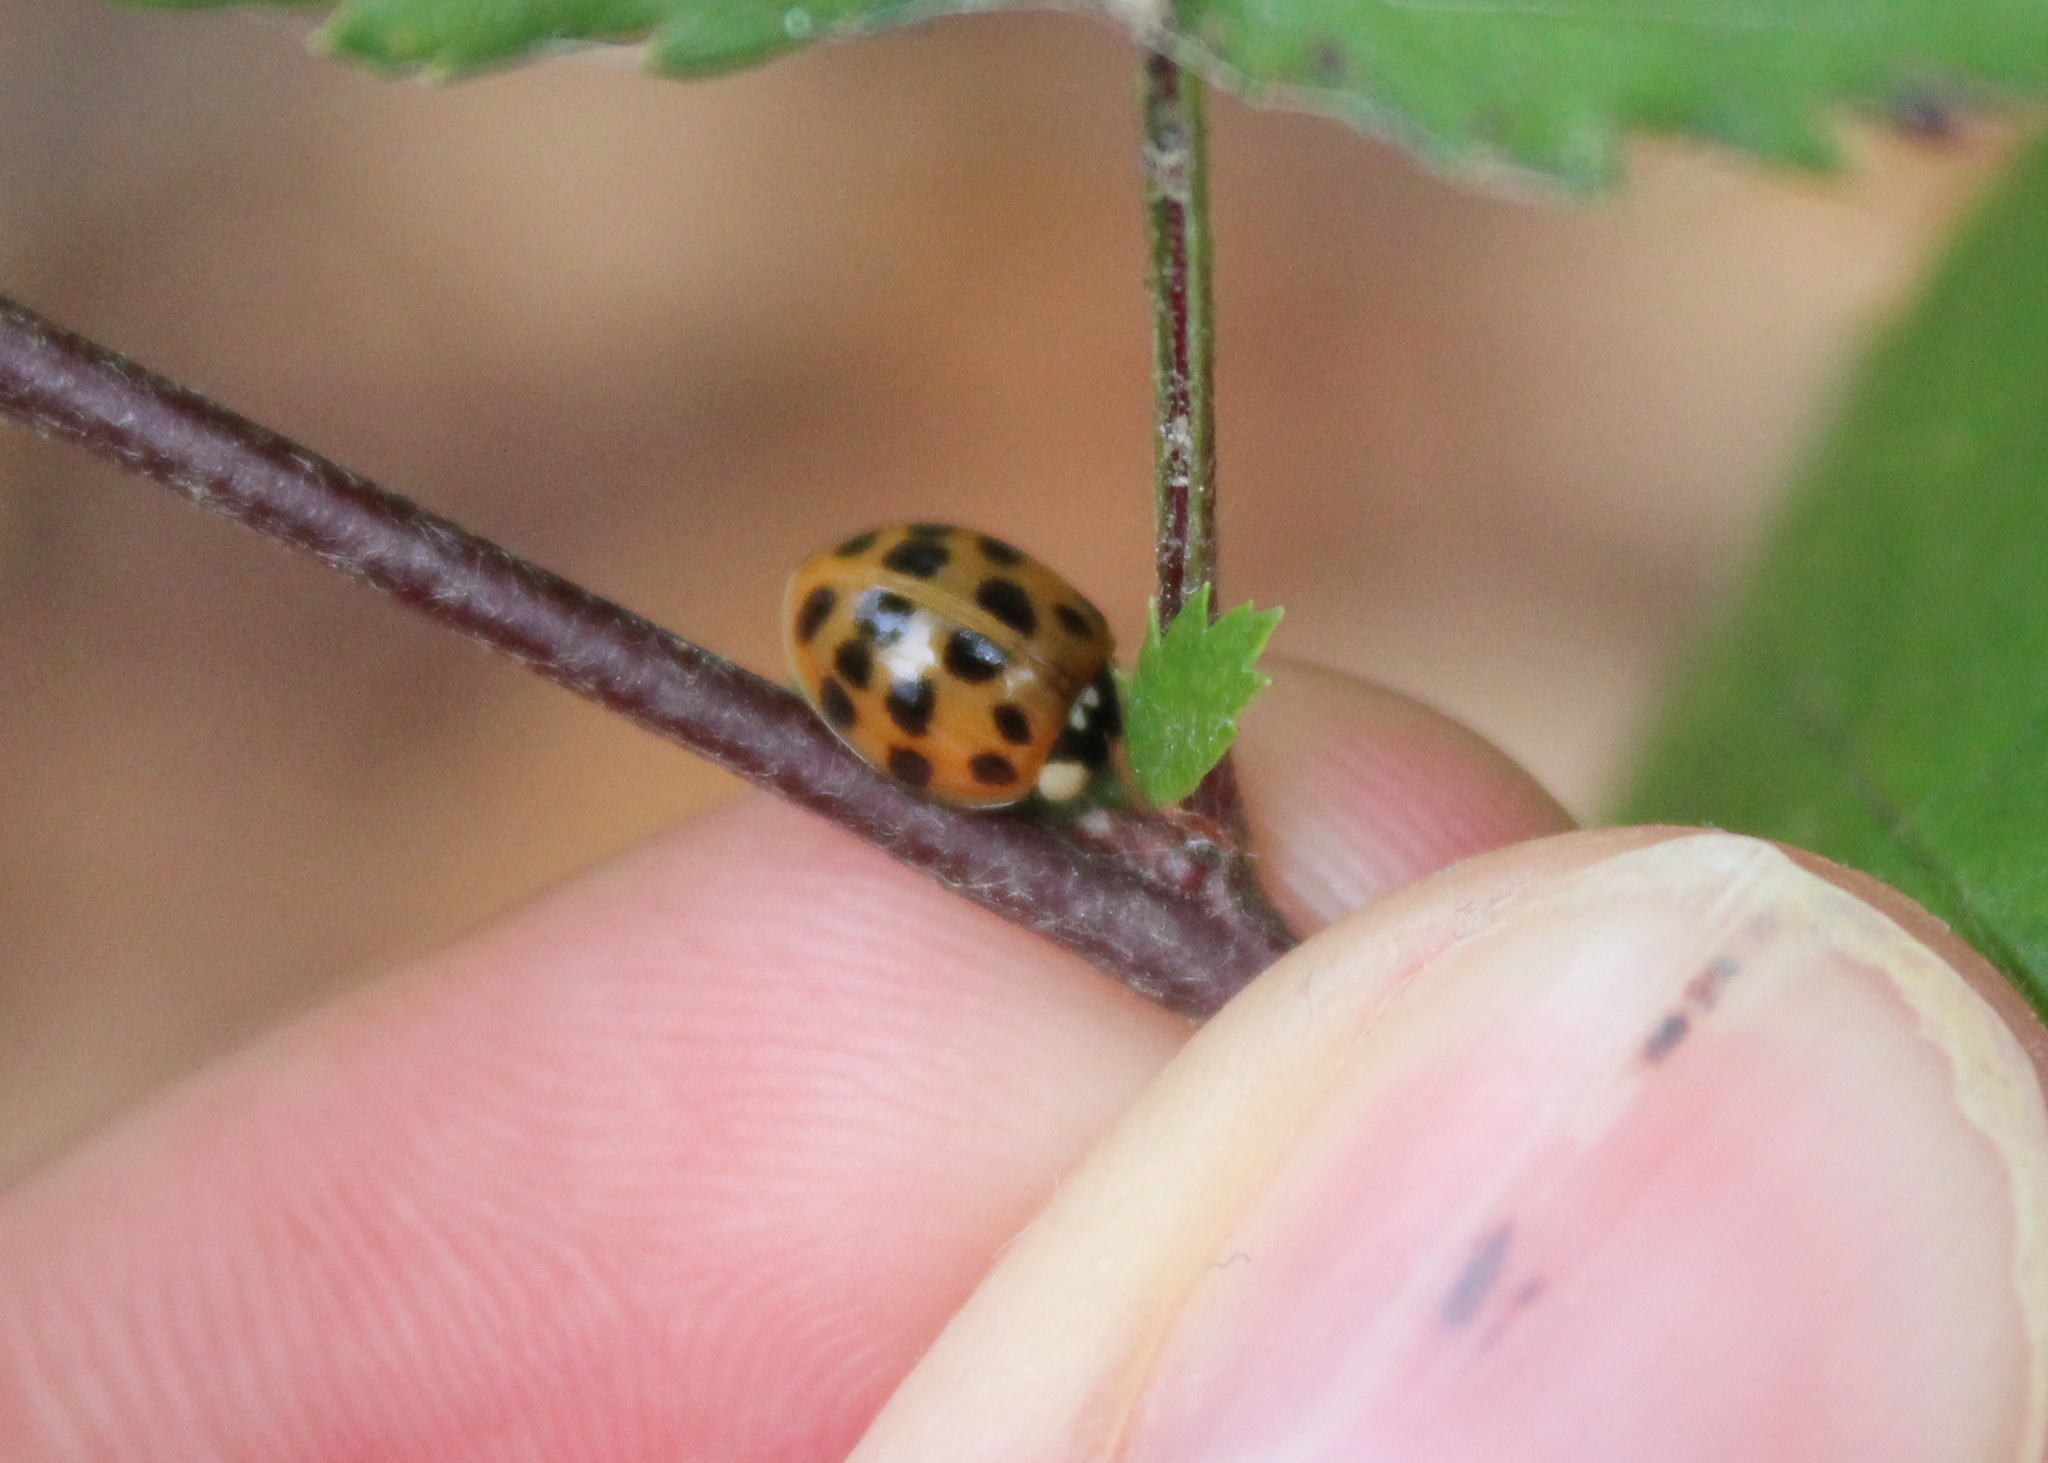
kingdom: Animalia
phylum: Arthropoda
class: Insecta
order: Coleoptera
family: Coccinellidae
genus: Harmonia
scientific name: Harmonia axyridis
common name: Harlequin ladybird
